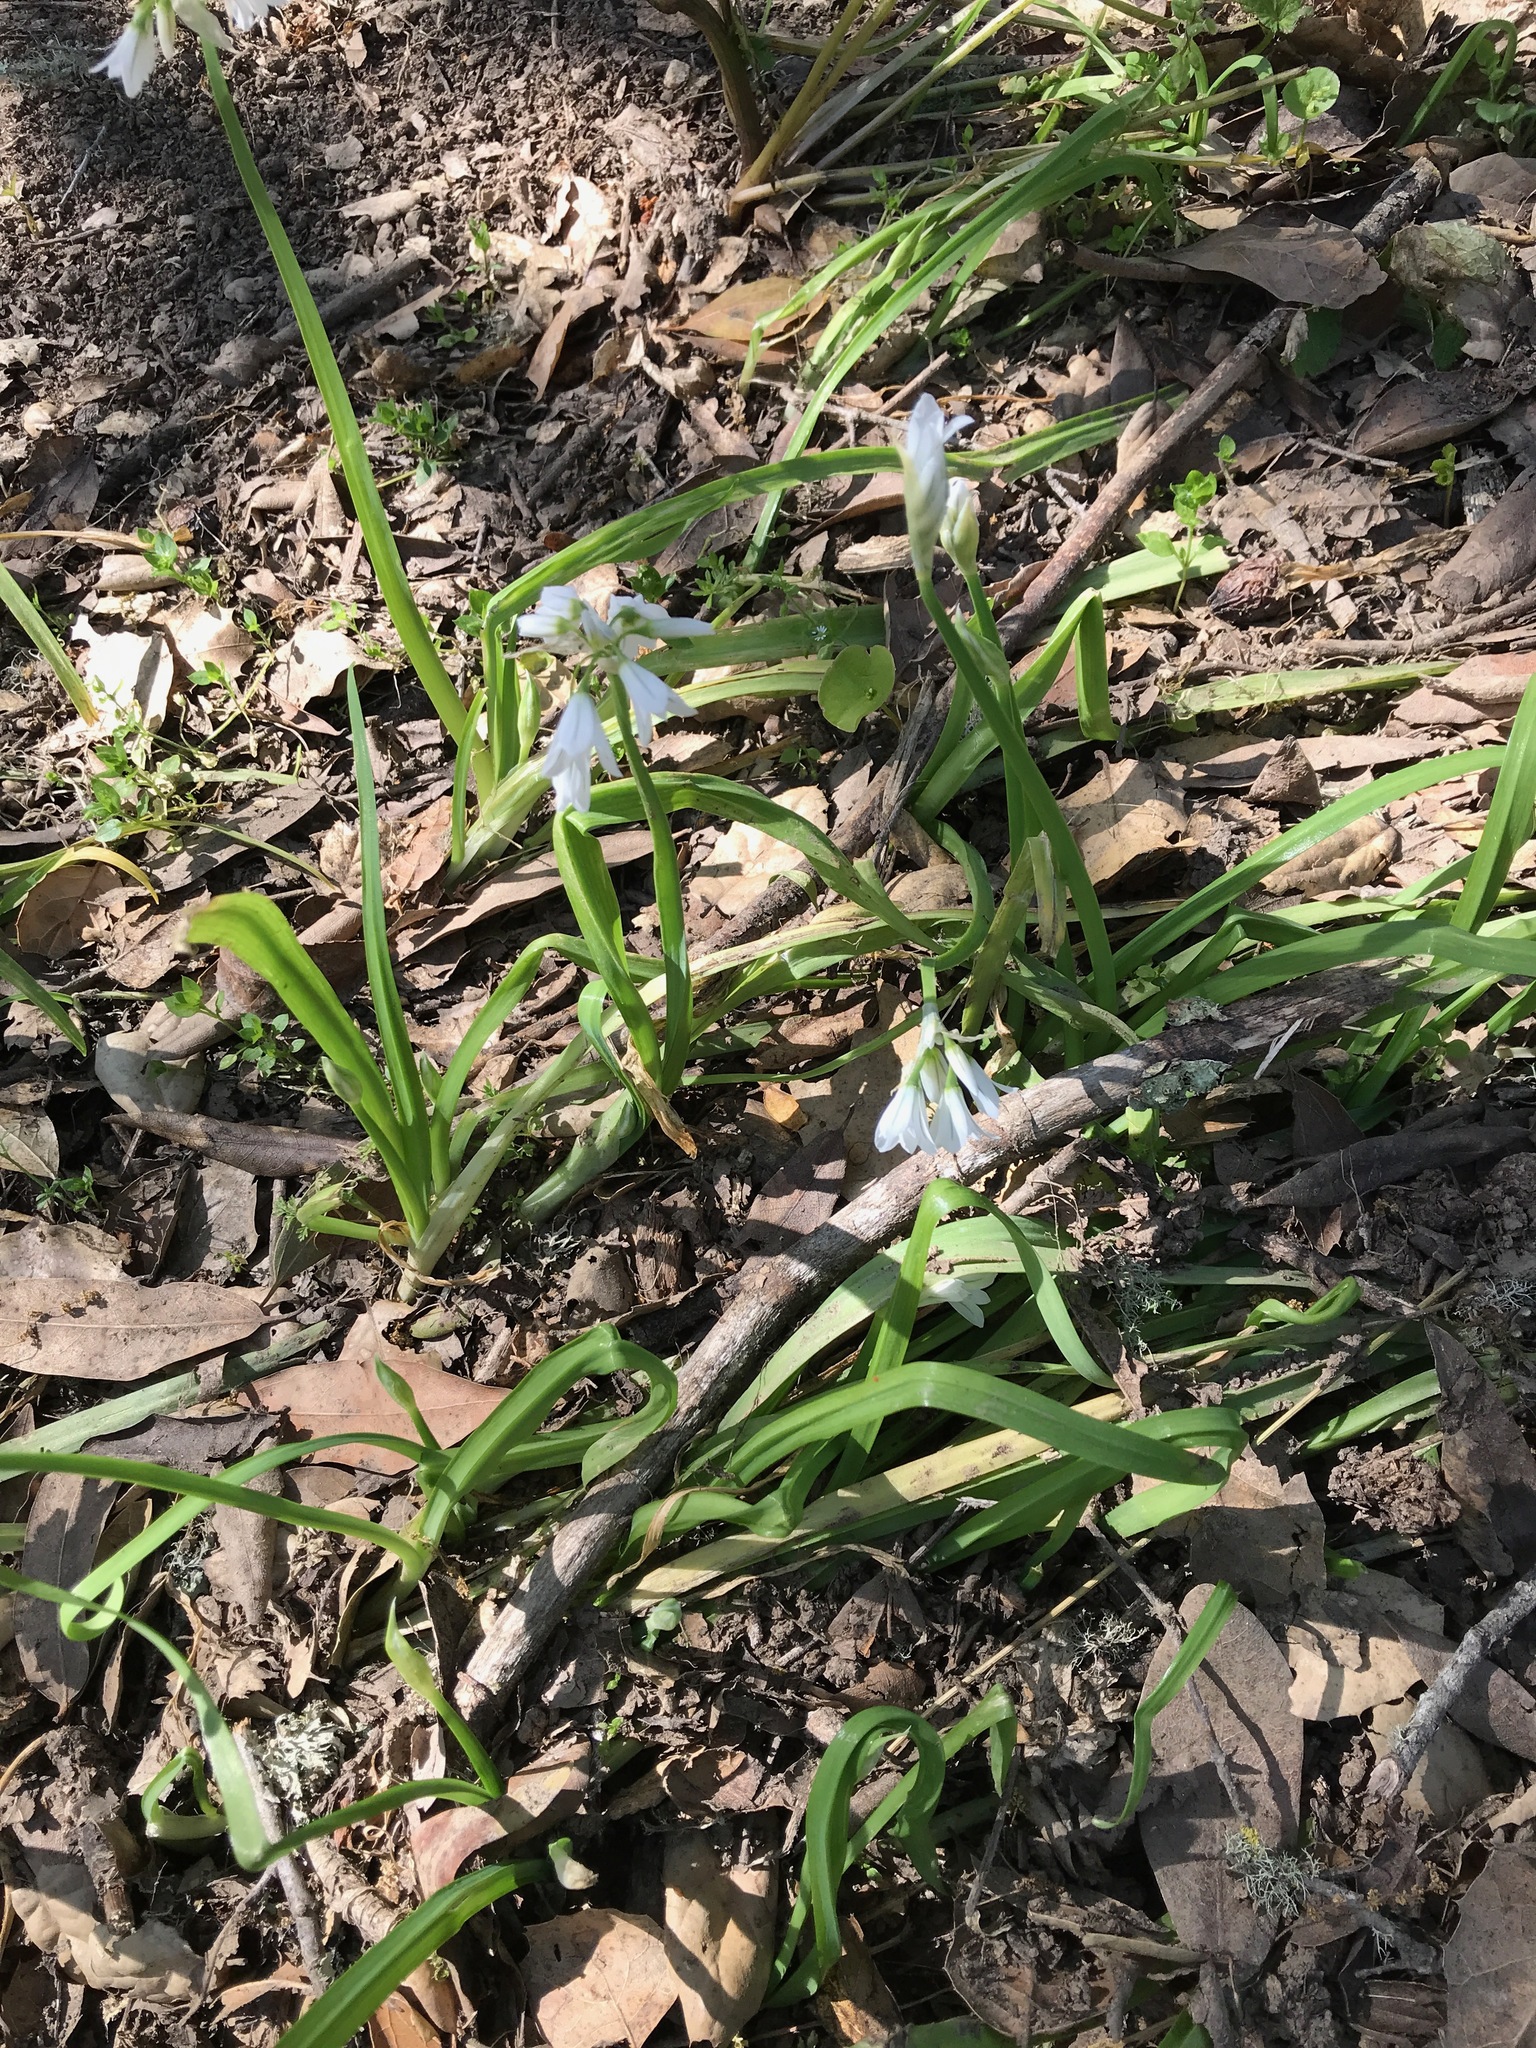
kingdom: Plantae
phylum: Tracheophyta
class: Liliopsida
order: Asparagales
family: Amaryllidaceae
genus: Allium
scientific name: Allium triquetrum
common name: Three-cornered garlic
